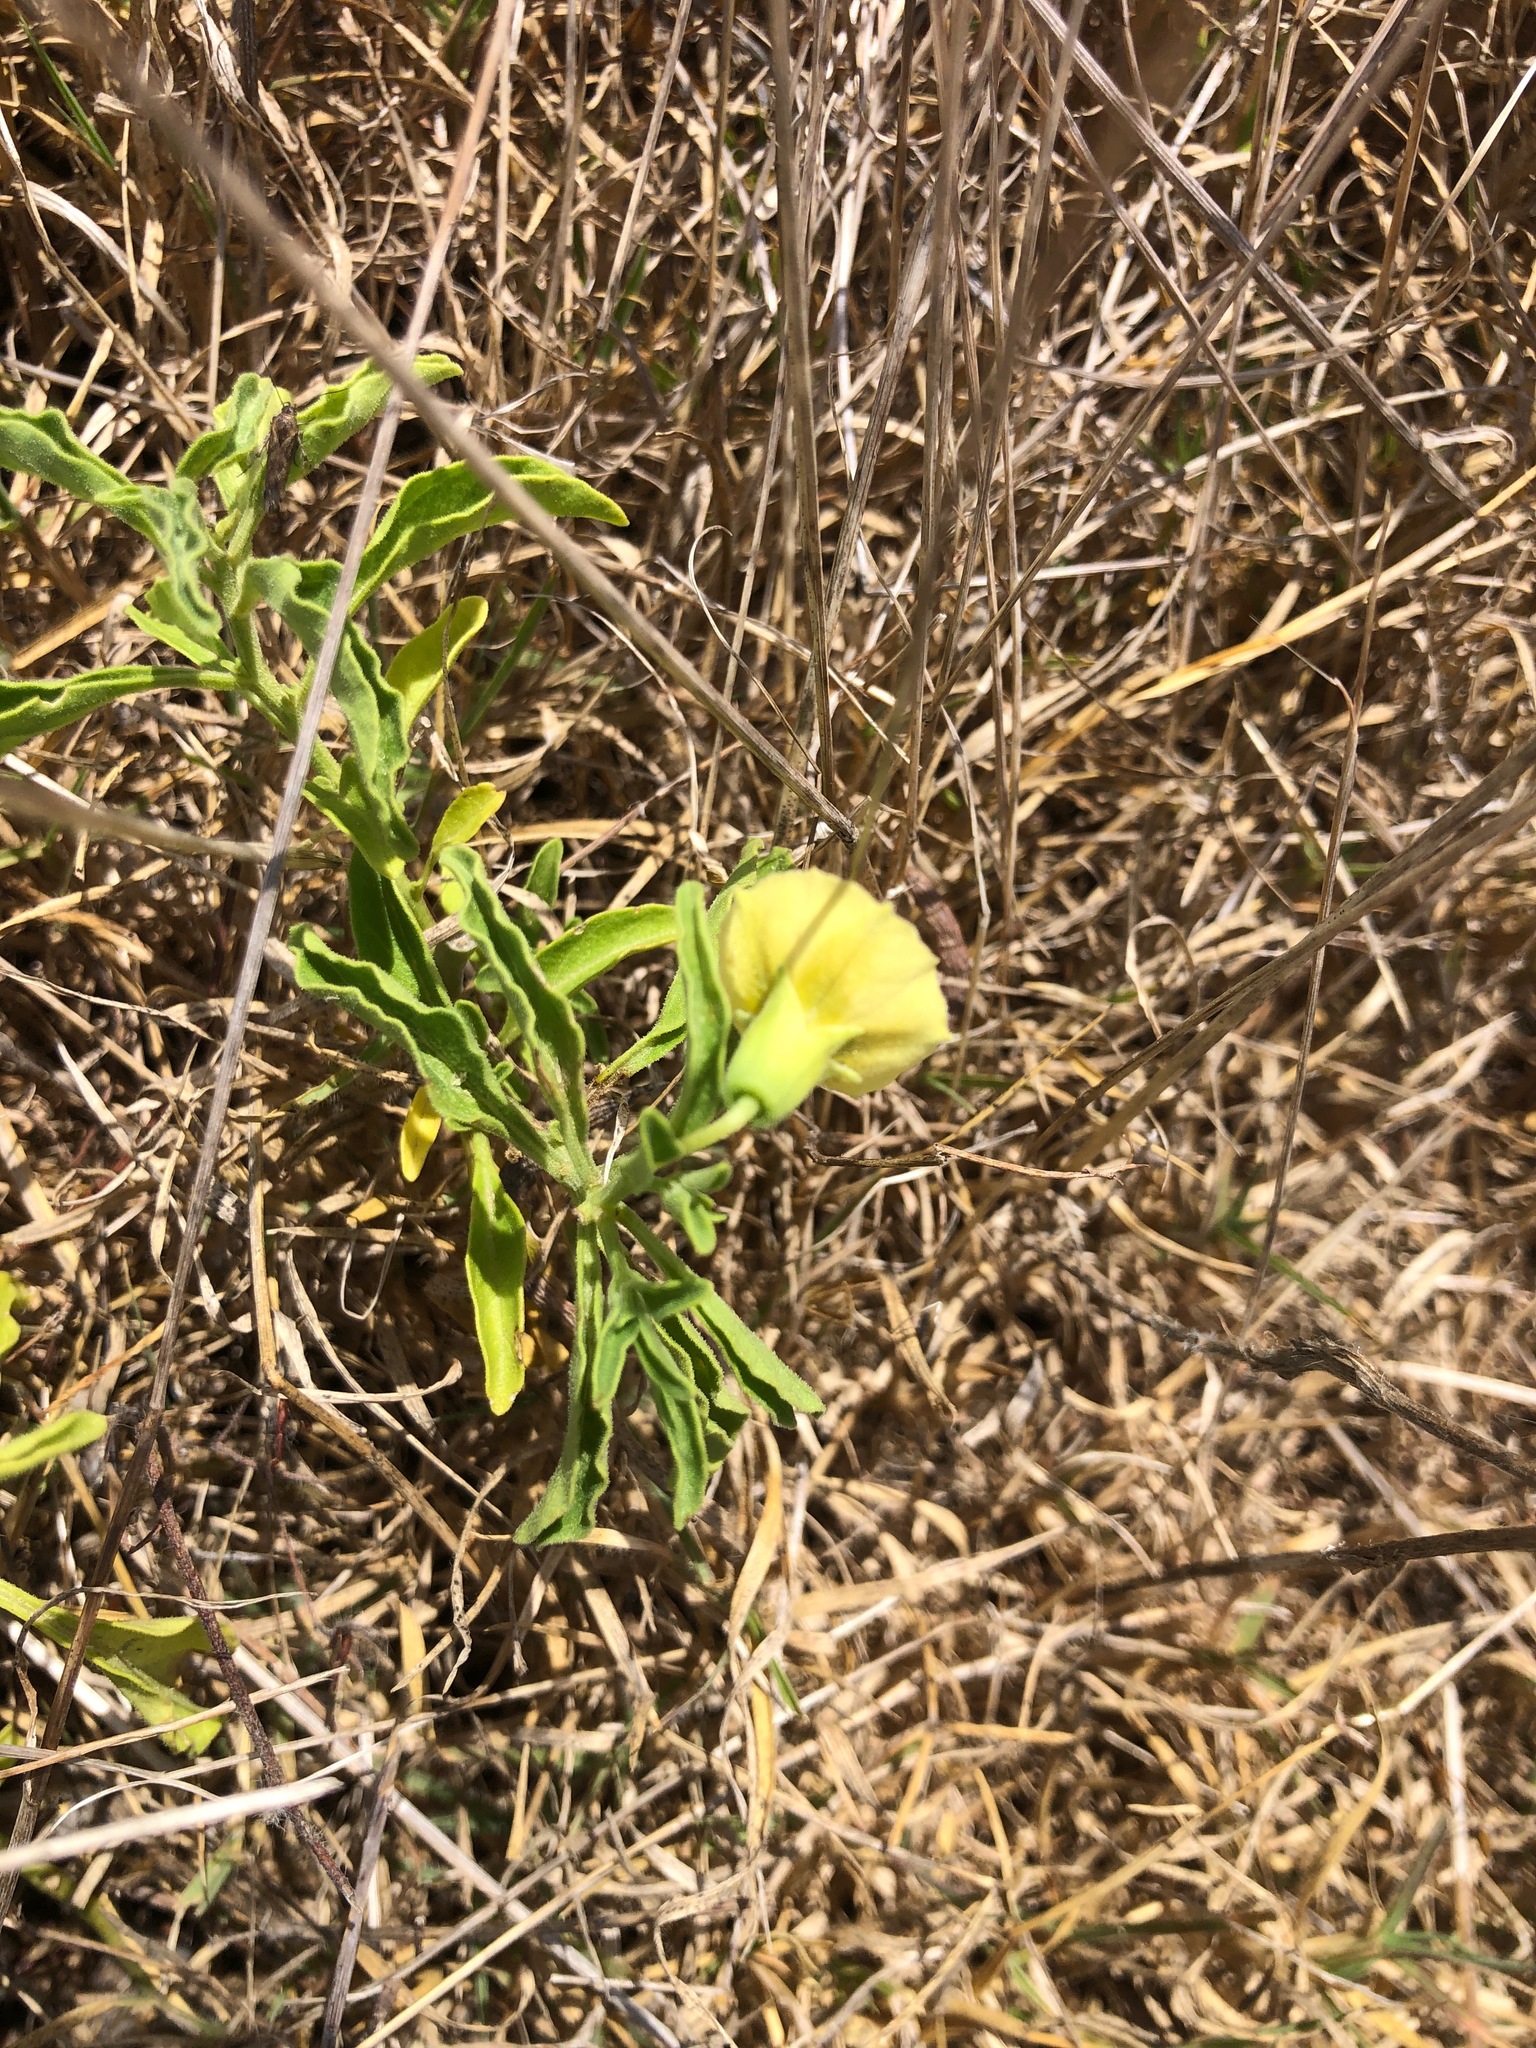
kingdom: Plantae
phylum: Tracheophyta
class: Magnoliopsida
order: Solanales
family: Solanaceae
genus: Physalis
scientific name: Physalis viscosa
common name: Stellate ground-cherry
